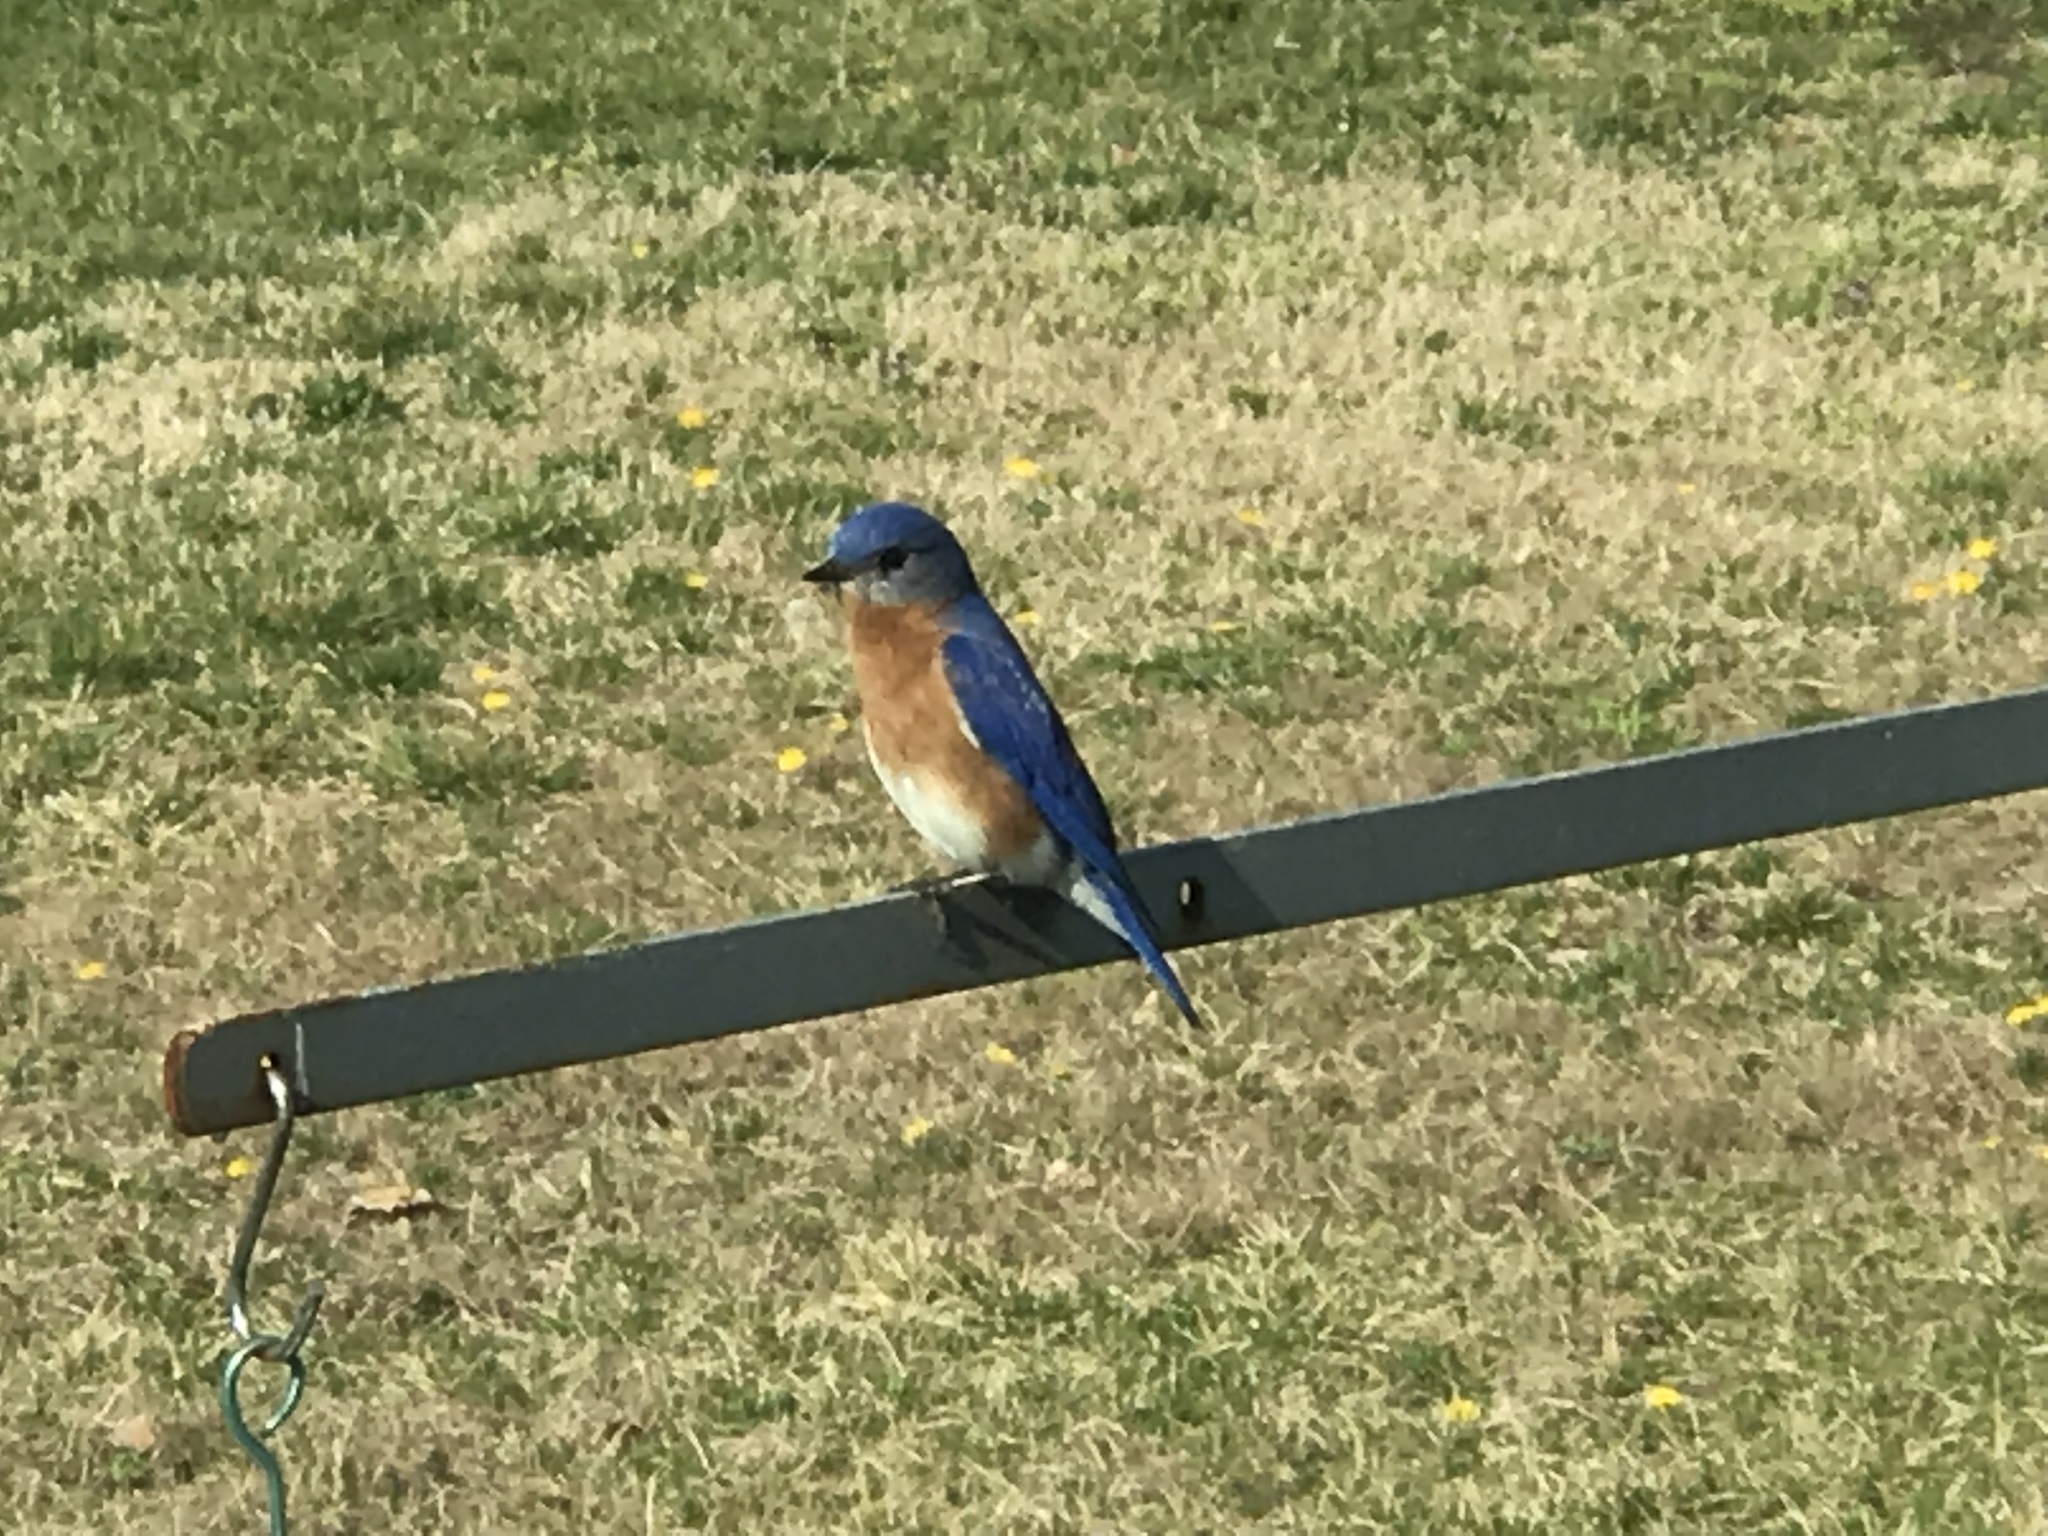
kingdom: Animalia
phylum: Chordata
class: Aves
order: Passeriformes
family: Turdidae
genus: Sialia
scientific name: Sialia sialis
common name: Eastern bluebird
